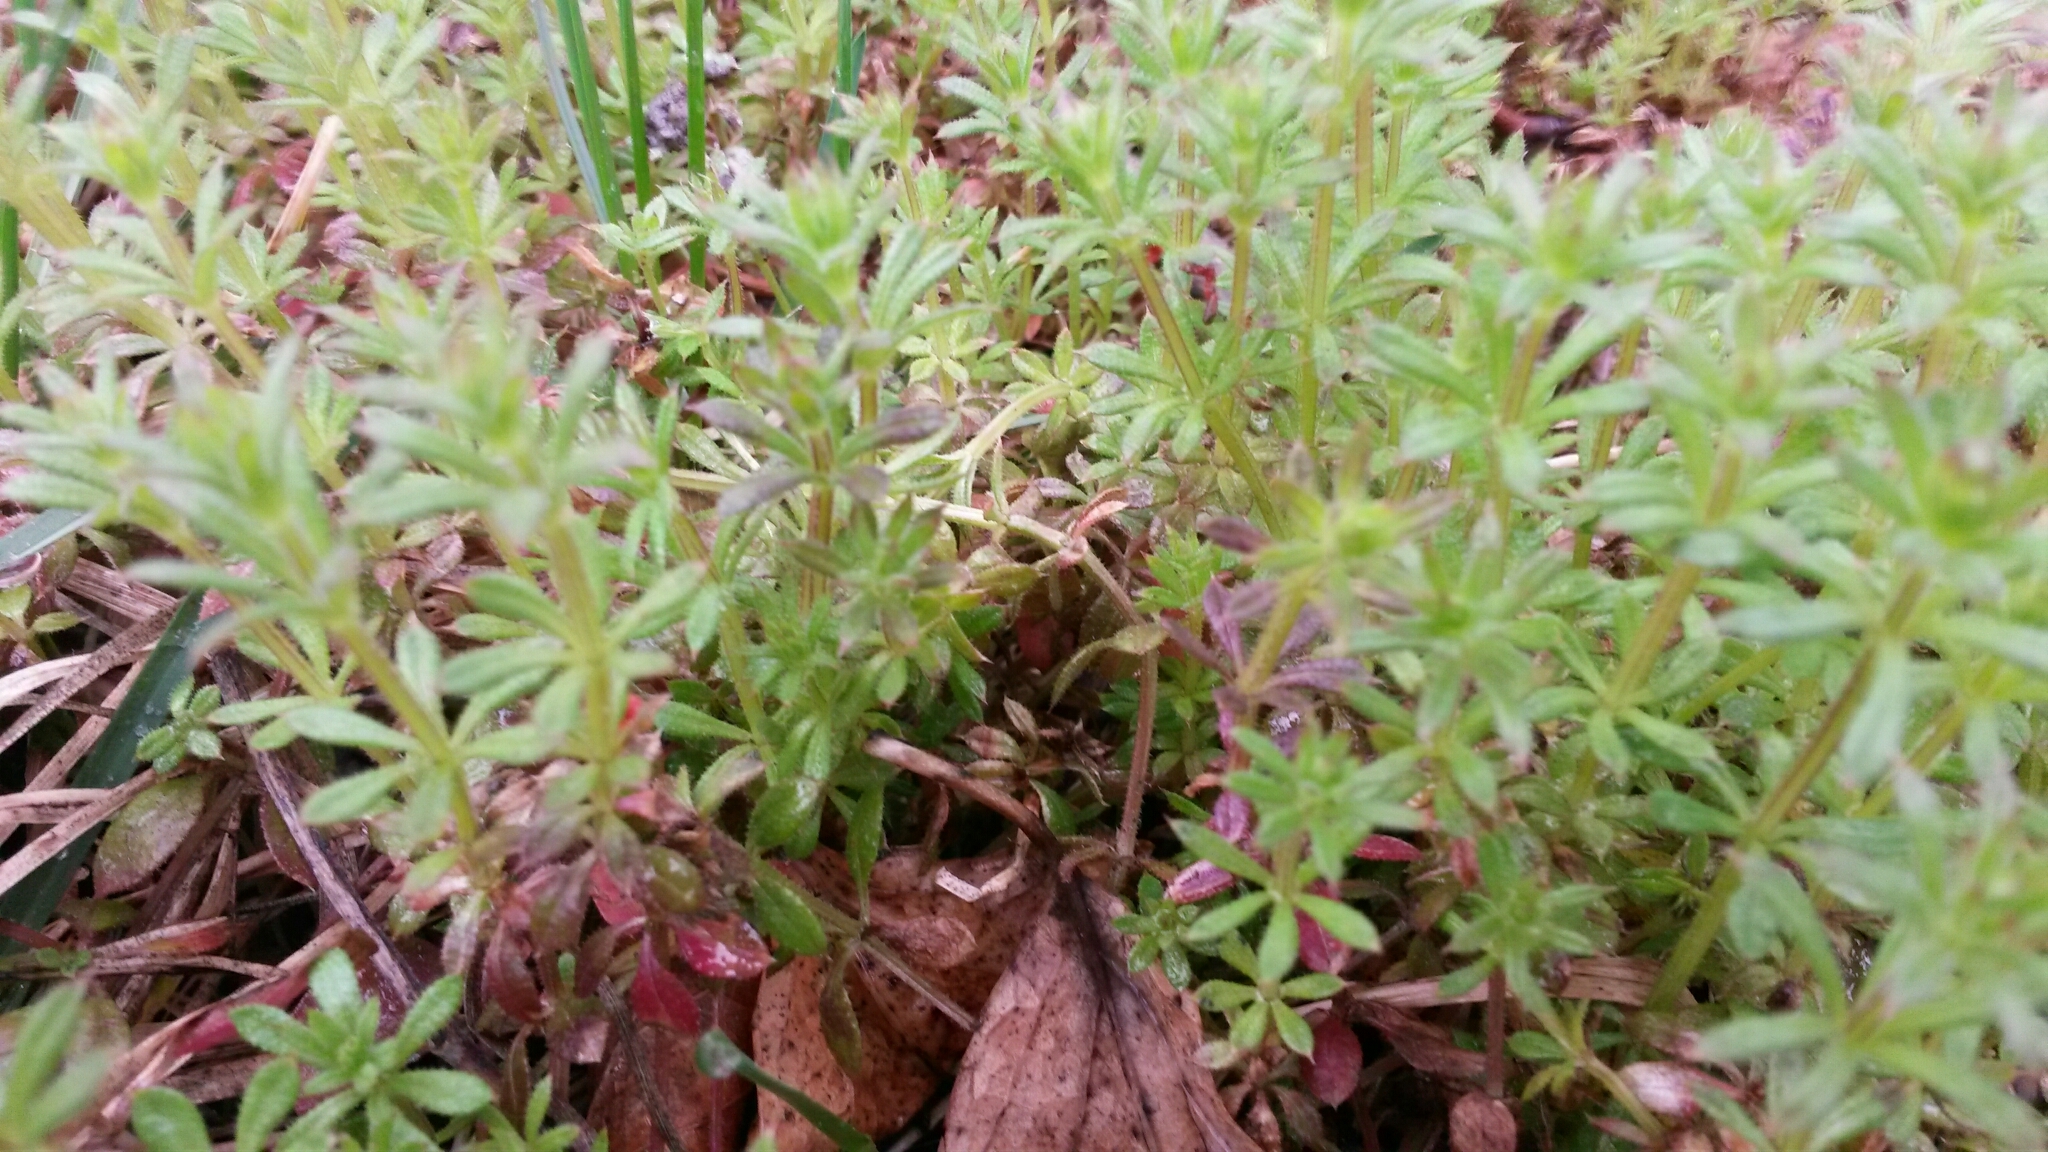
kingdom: Plantae
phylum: Tracheophyta
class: Magnoliopsida
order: Gentianales
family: Rubiaceae
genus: Galium
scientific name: Galium aparine
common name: Cleavers
